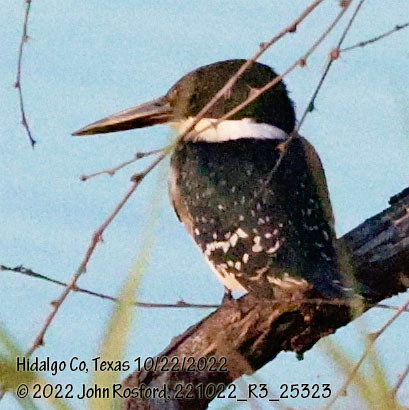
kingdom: Animalia
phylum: Chordata
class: Aves
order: Coraciiformes
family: Alcedinidae
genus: Chloroceryle
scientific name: Chloroceryle americana
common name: Green kingfisher
